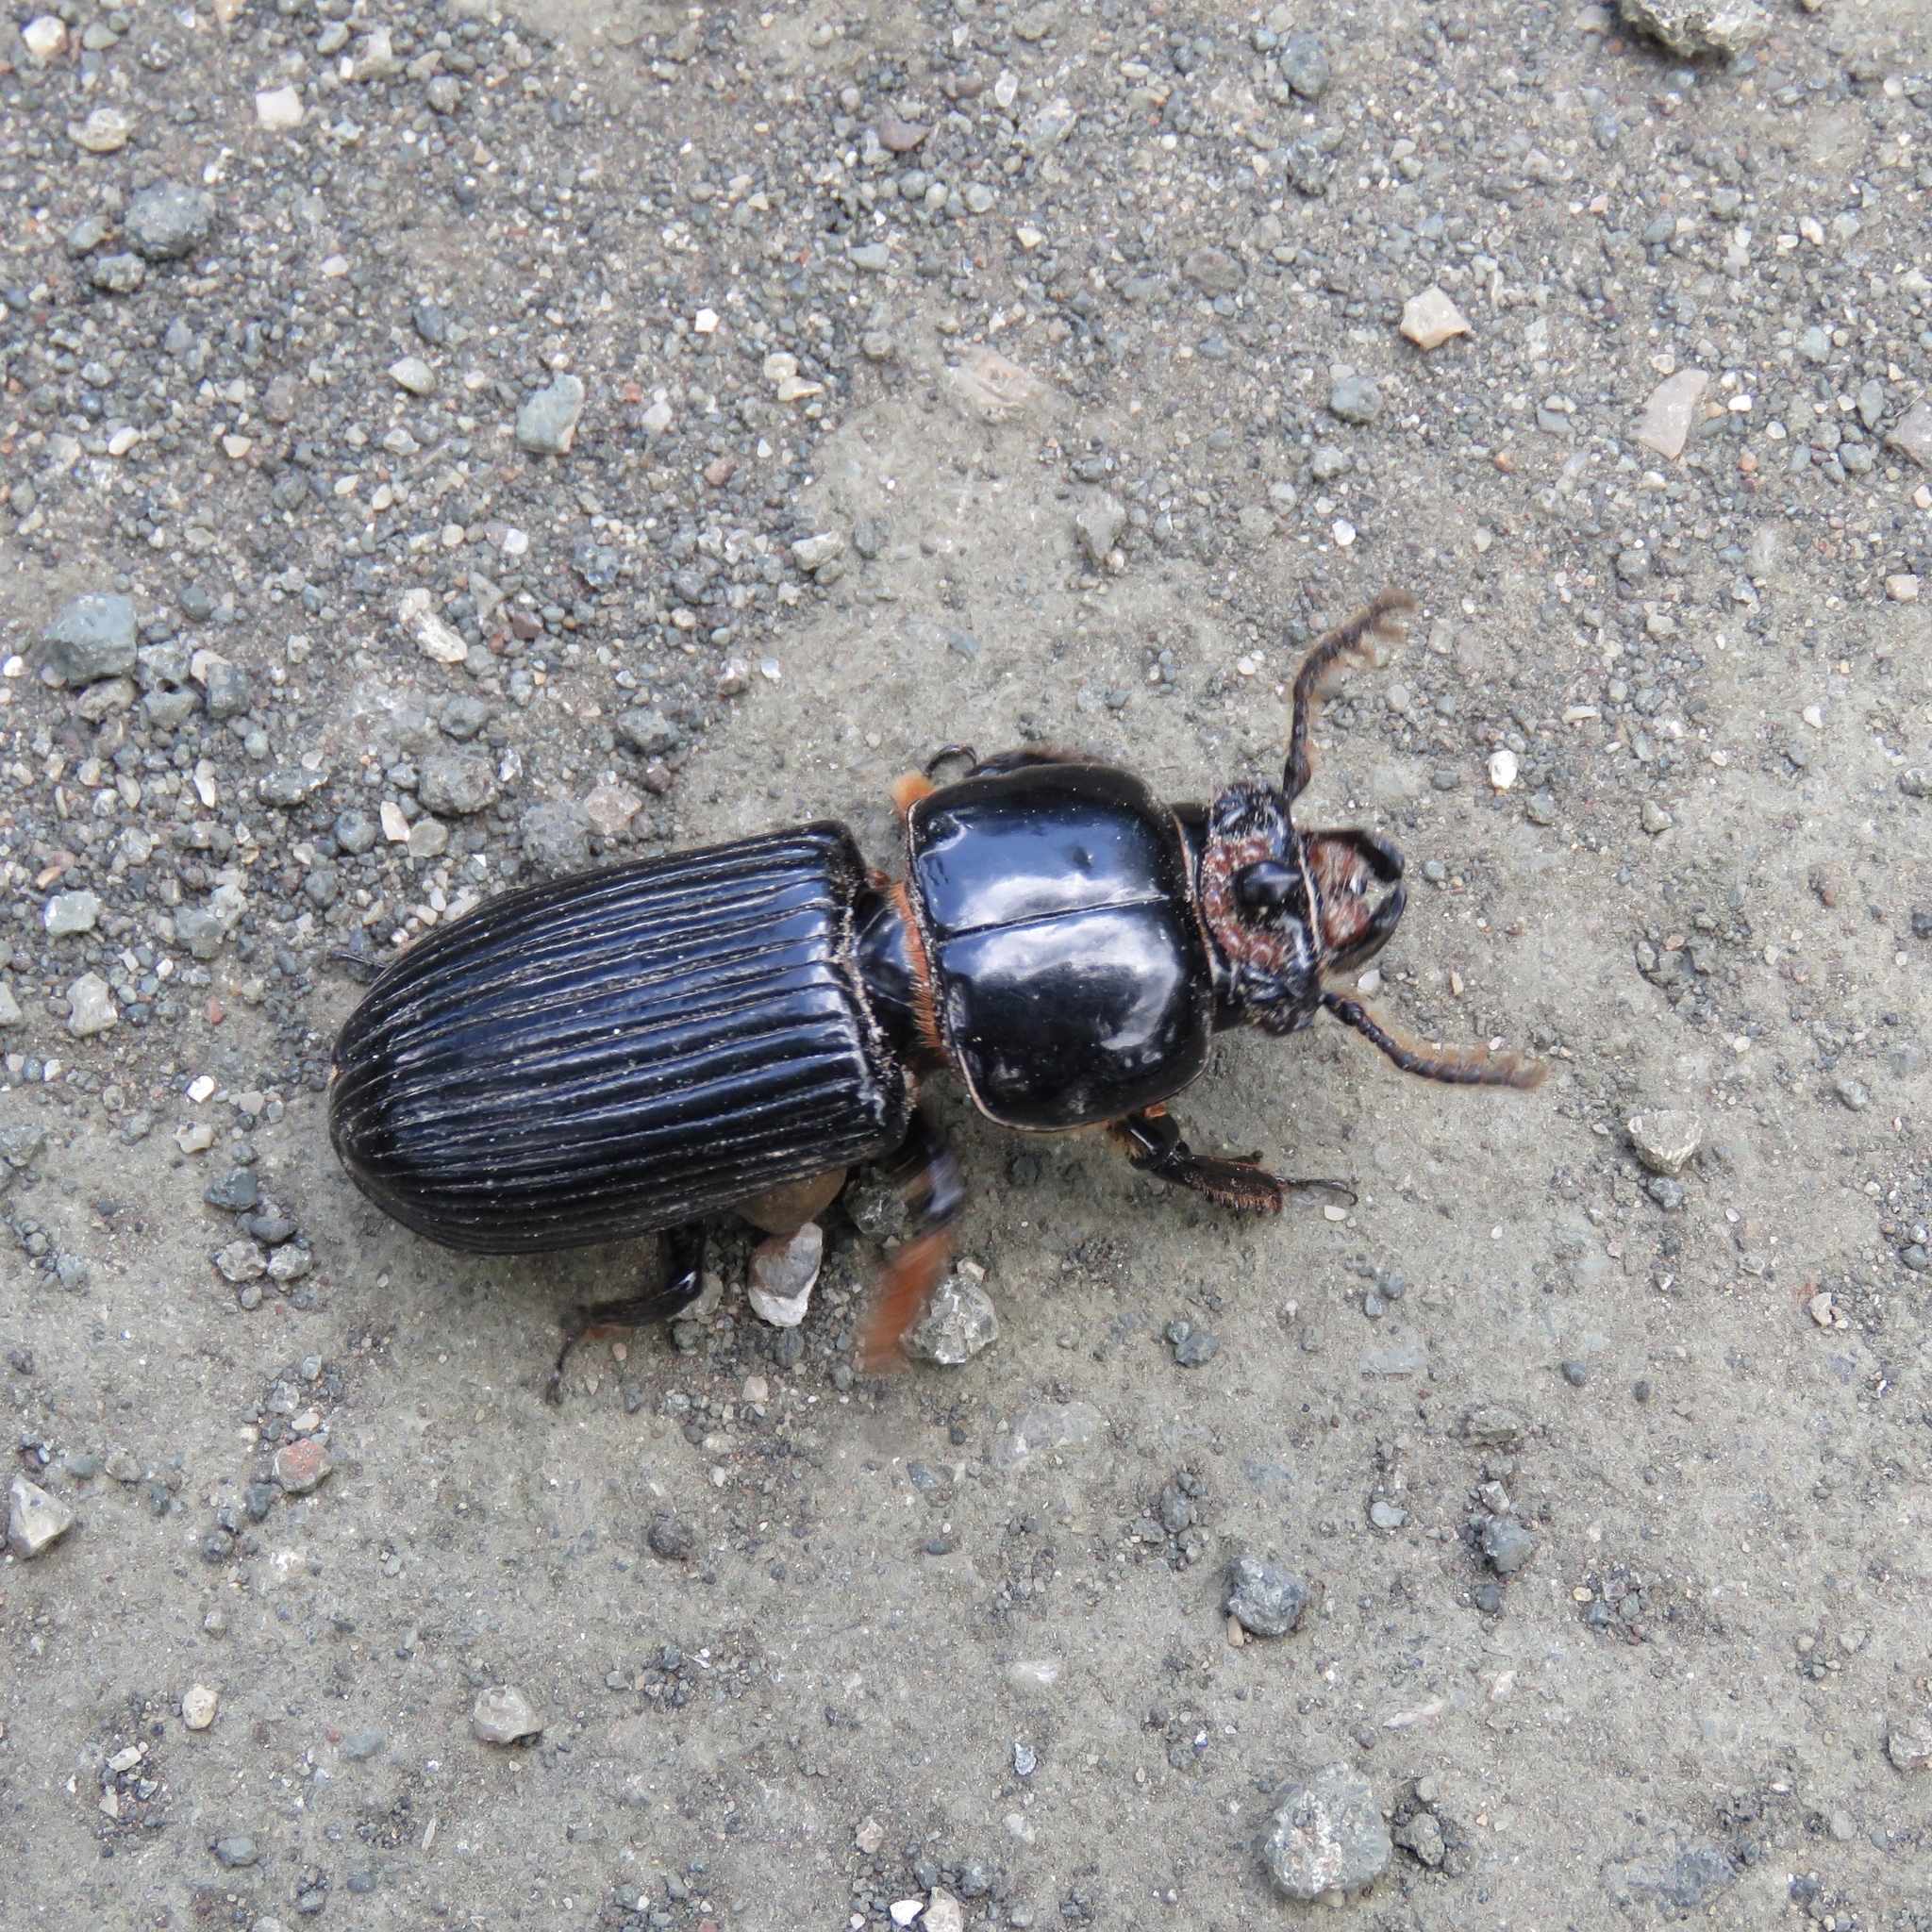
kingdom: Animalia
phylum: Arthropoda
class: Insecta
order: Coleoptera
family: Passalidae
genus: Odontotaenius
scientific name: Odontotaenius disjunctus
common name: Patent leather beetle
